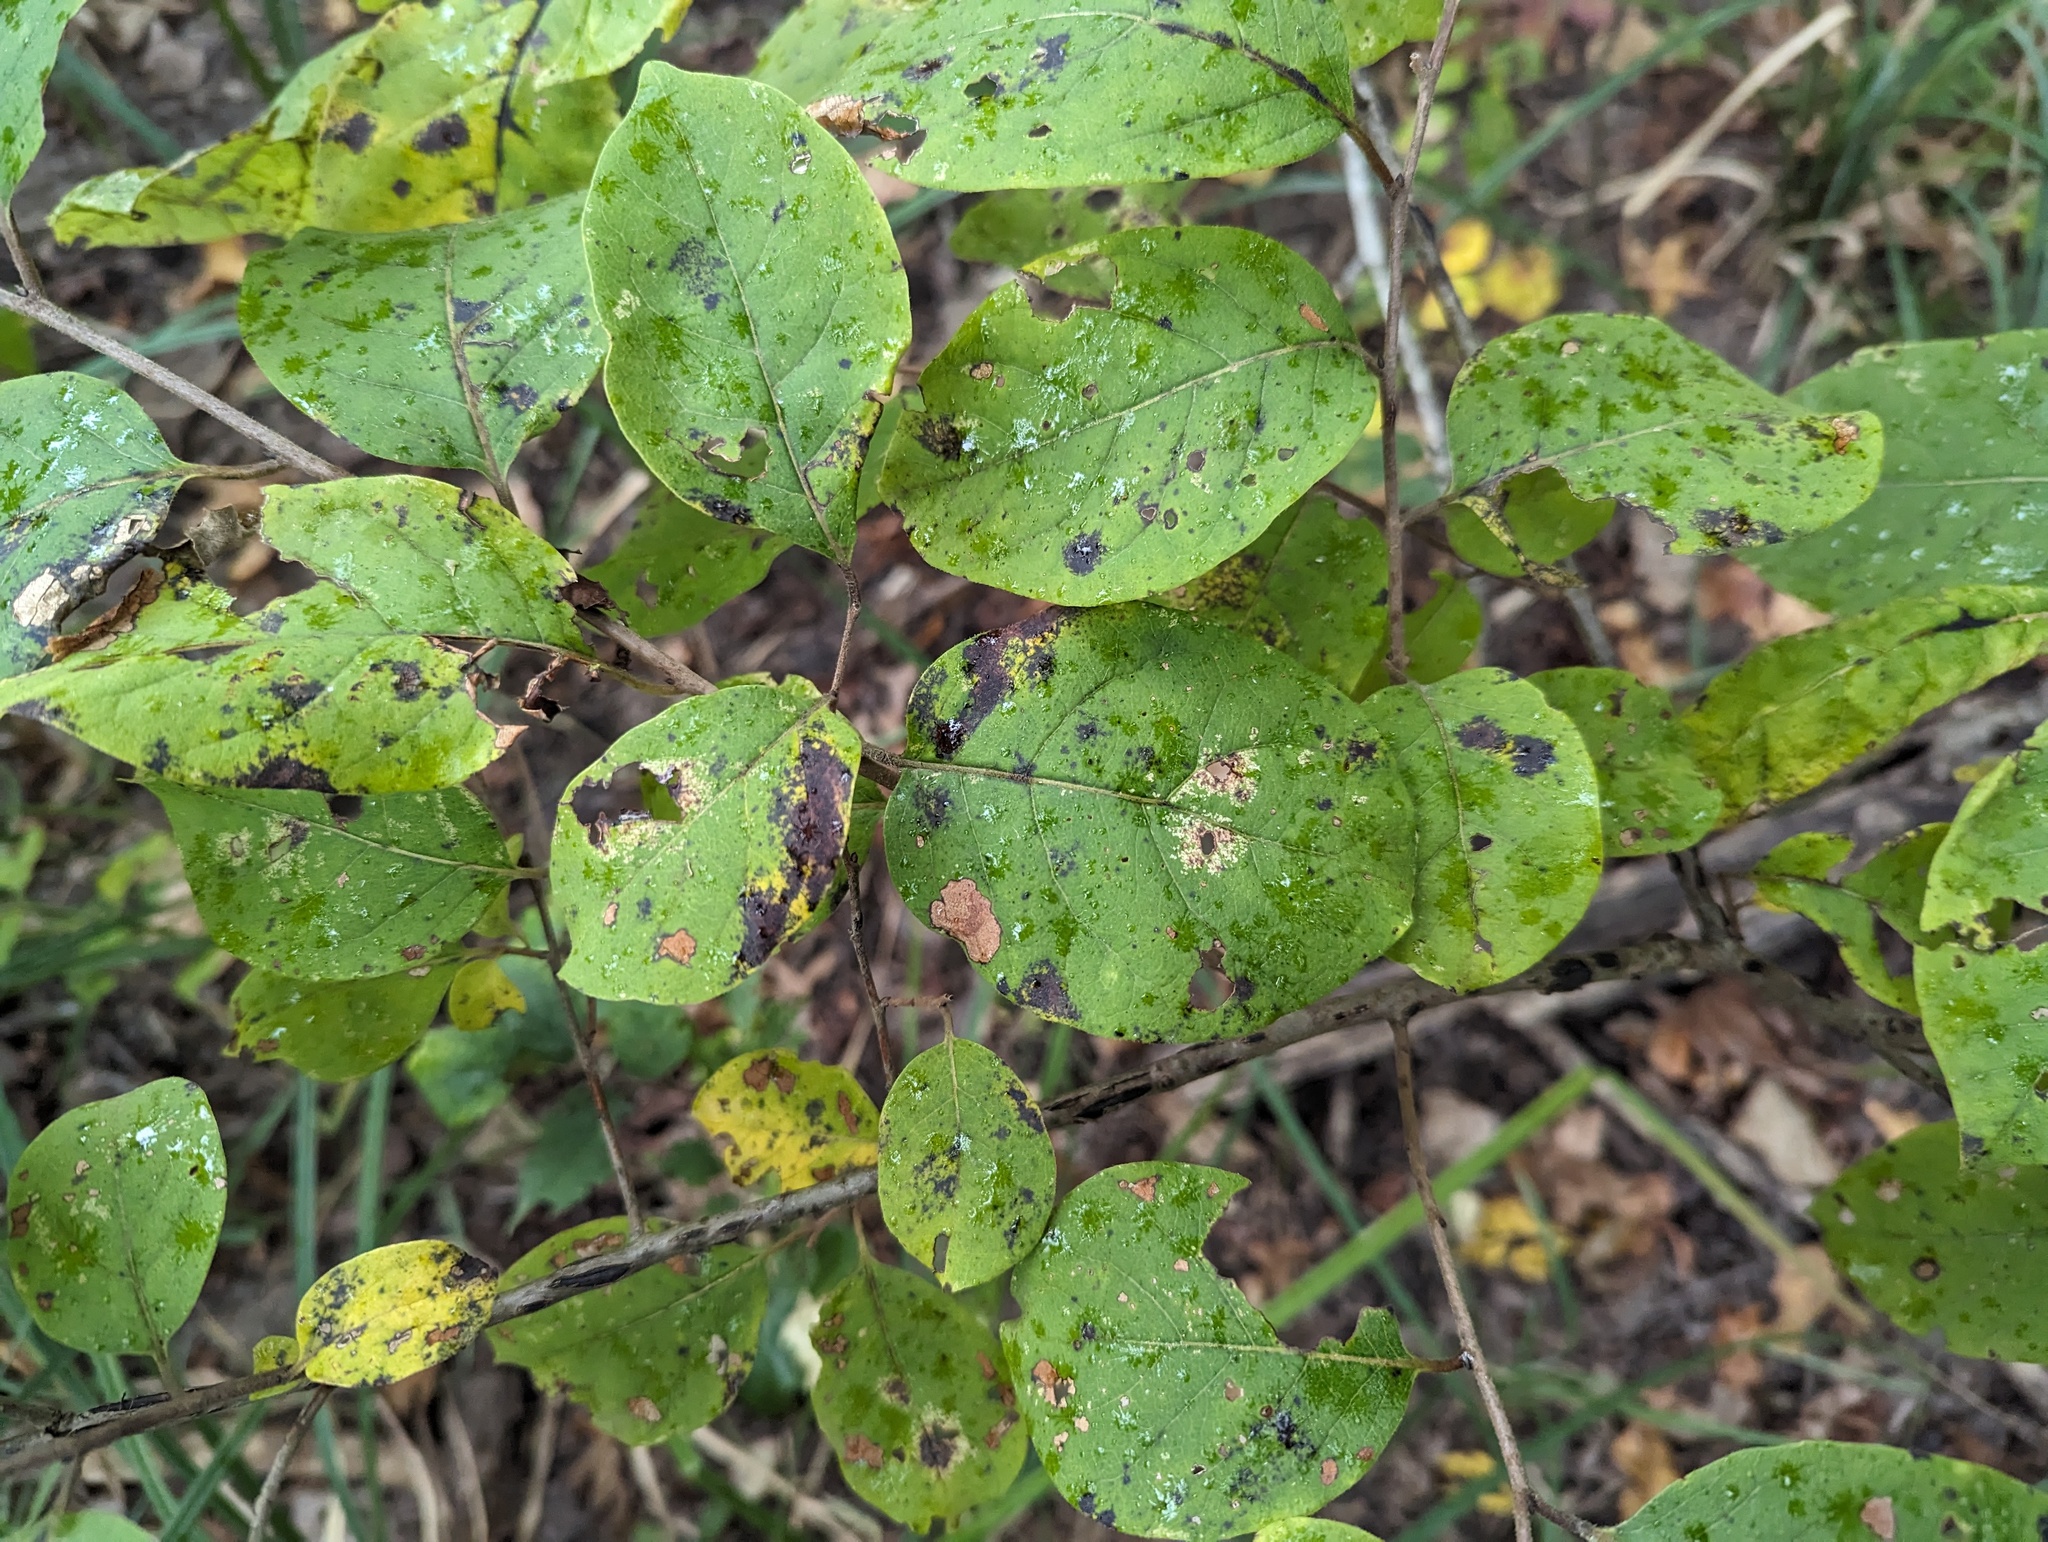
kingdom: Plantae
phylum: Tracheophyta
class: Magnoliopsida
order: Ericales
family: Ebenaceae
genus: Diospyros
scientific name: Diospyros virginiana
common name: Persimmon
